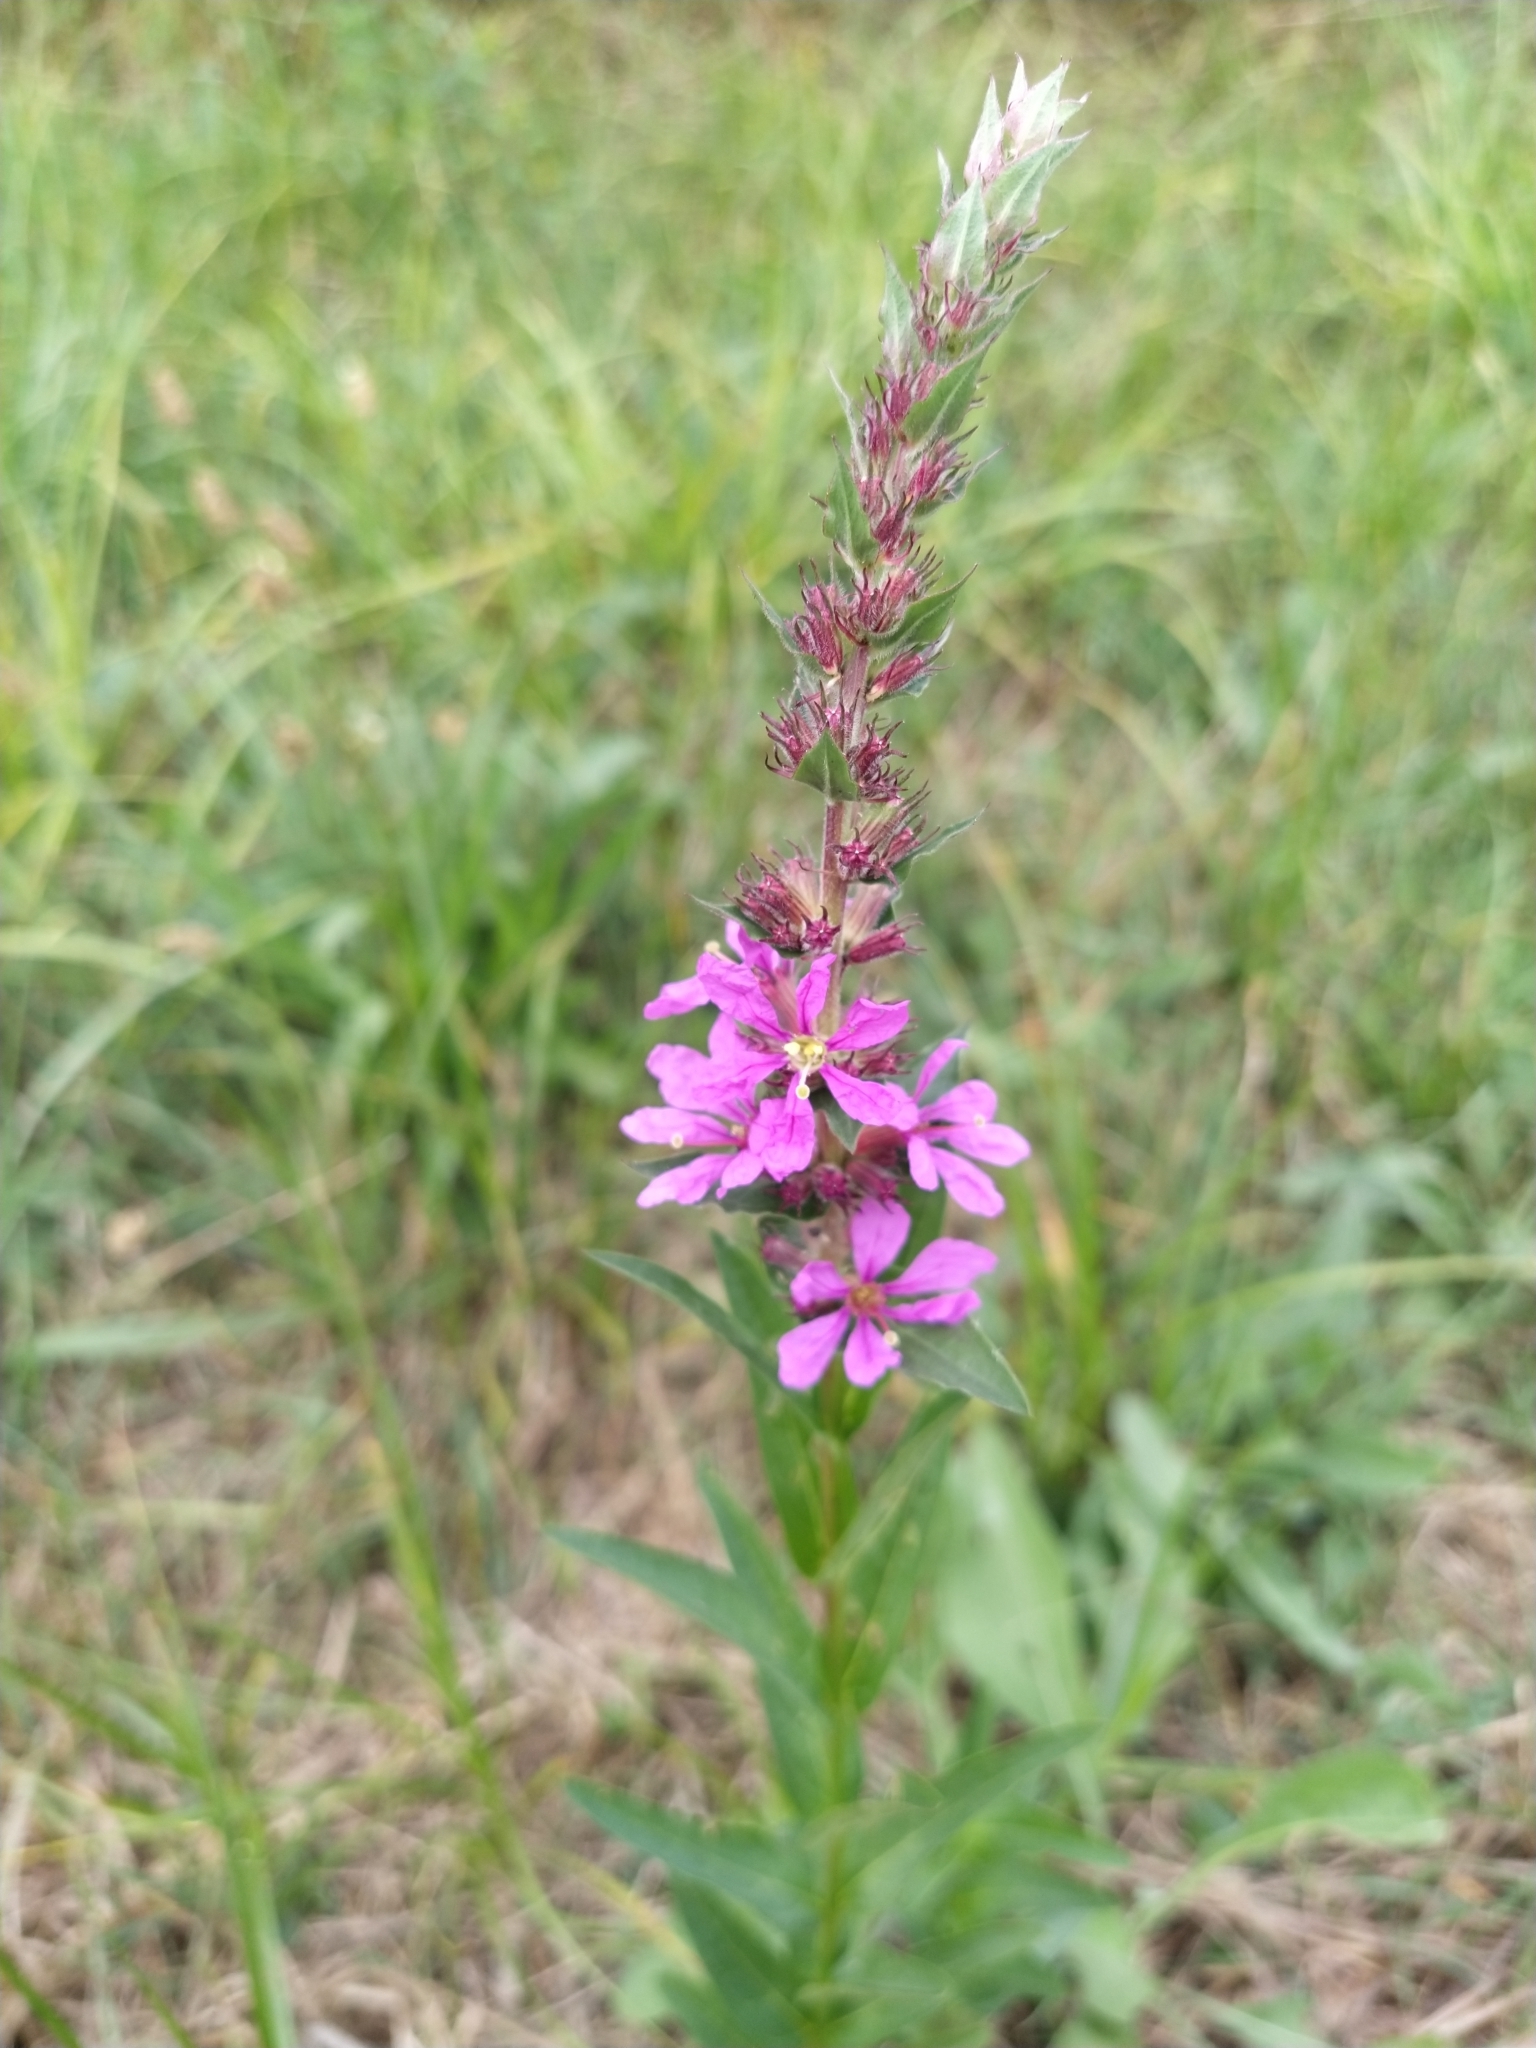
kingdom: Plantae
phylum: Tracheophyta
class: Magnoliopsida
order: Myrtales
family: Lythraceae
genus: Lythrum
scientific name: Lythrum salicaria
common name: Purple loosestrife
